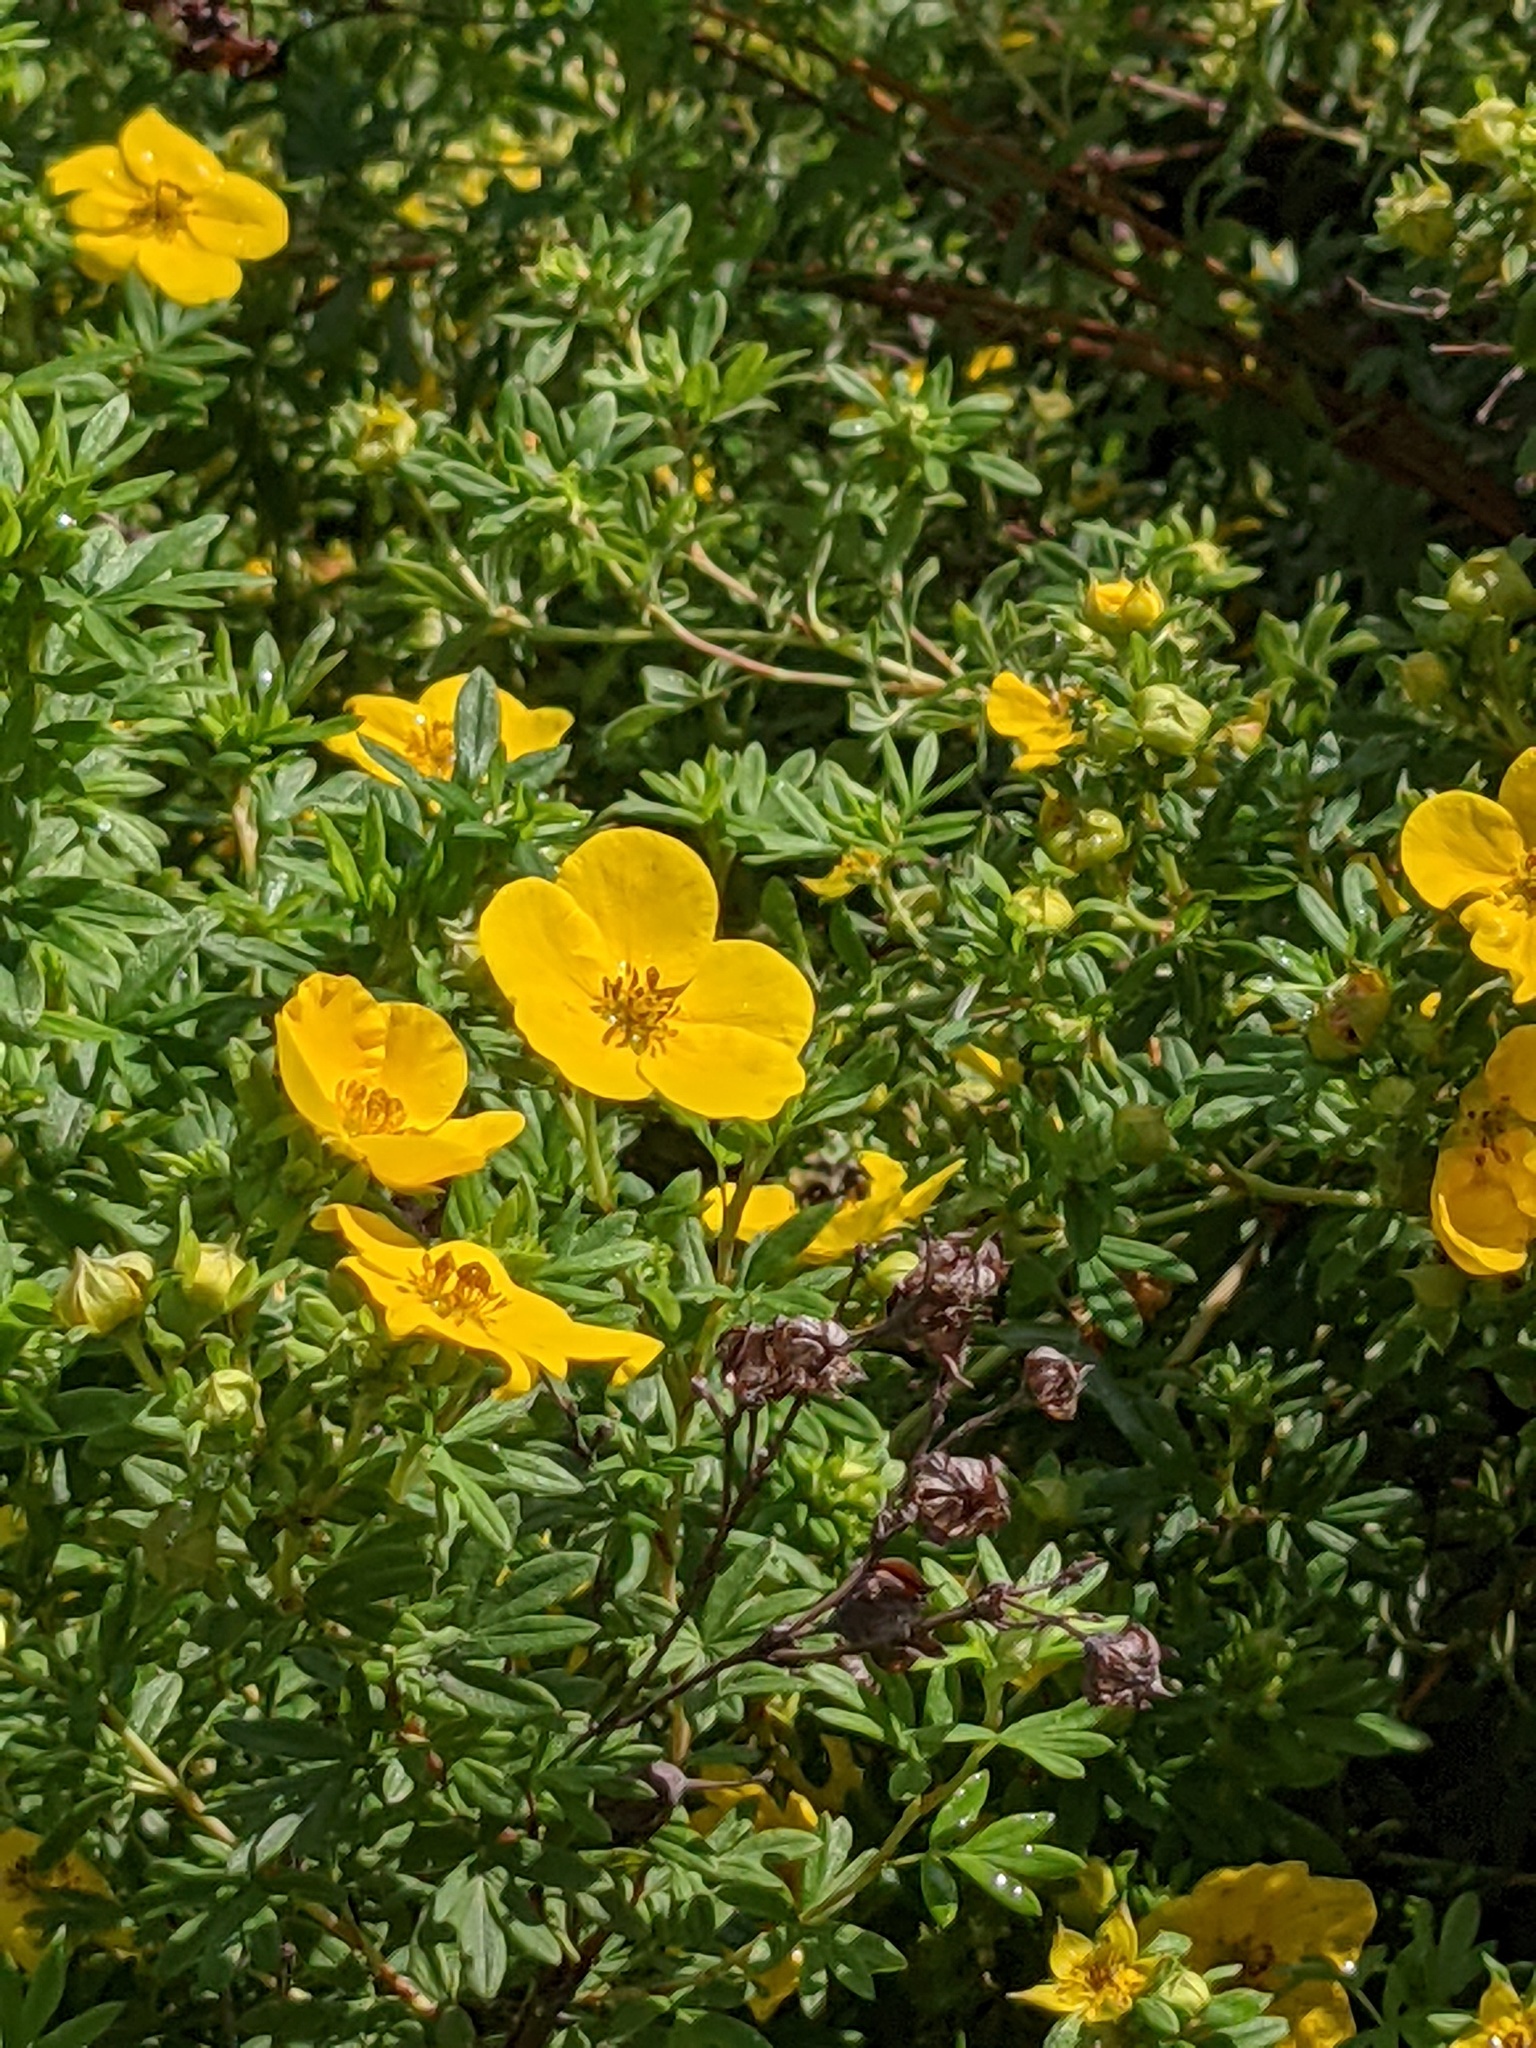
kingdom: Plantae
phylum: Tracheophyta
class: Magnoliopsida
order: Rosales
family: Rosaceae
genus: Dasiphora
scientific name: Dasiphora fruticosa
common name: Shrubby cinquefoil
